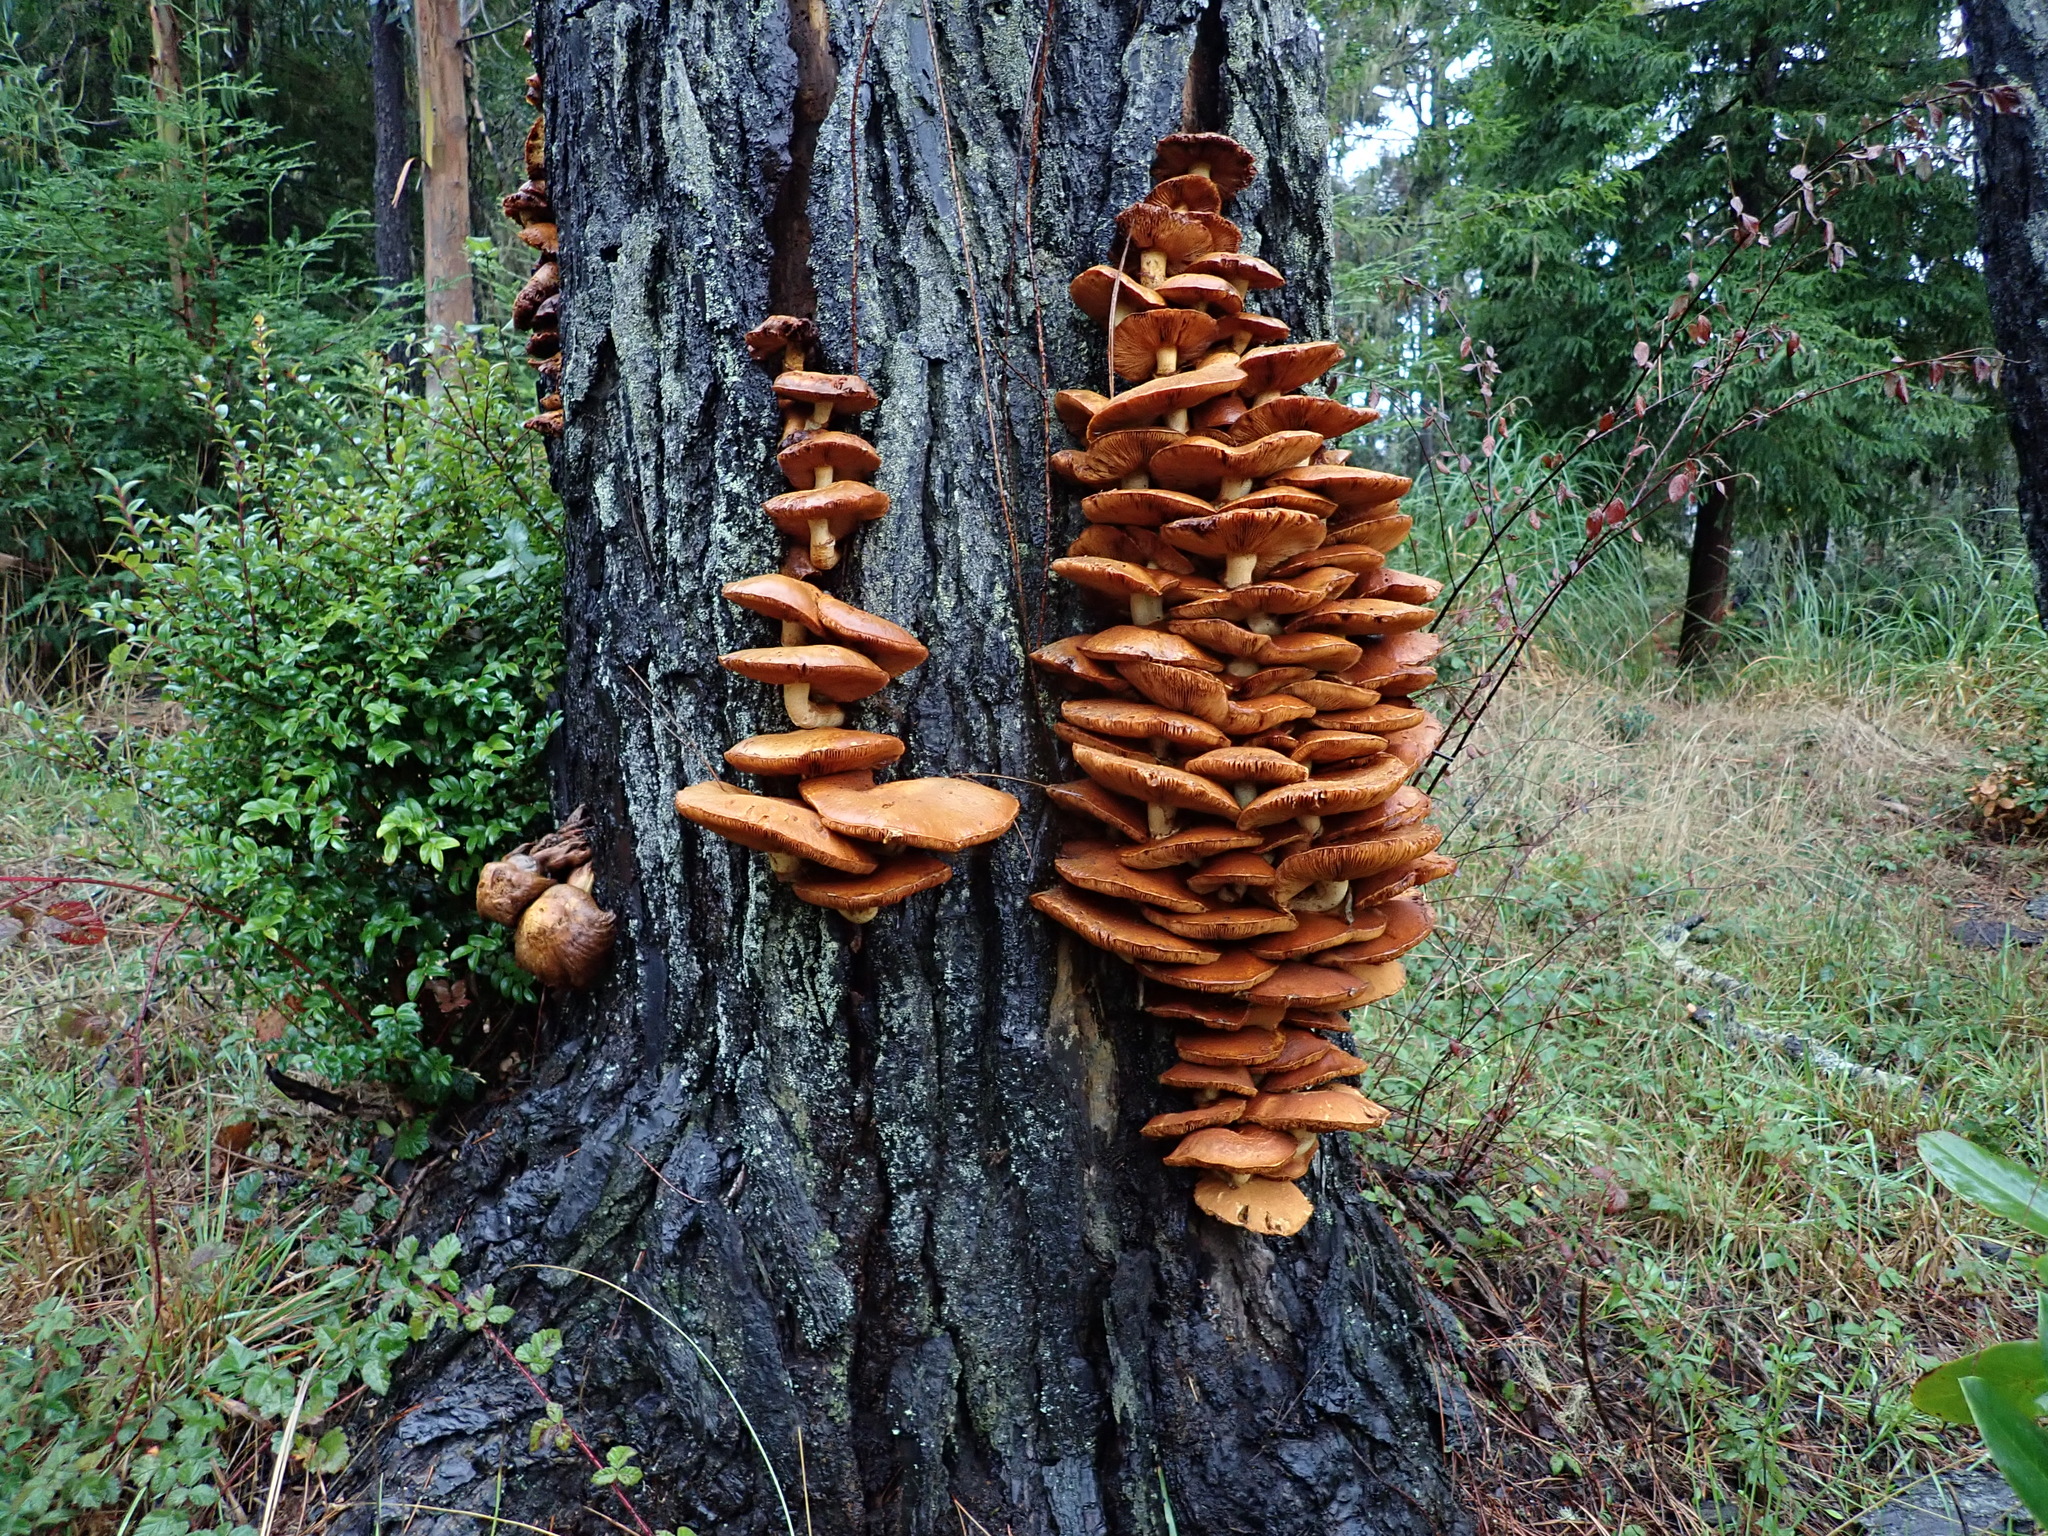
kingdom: Fungi
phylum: Basidiomycota
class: Agaricomycetes
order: Agaricales
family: Hymenogastraceae
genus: Gymnopilus
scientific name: Gymnopilus ventricosus
